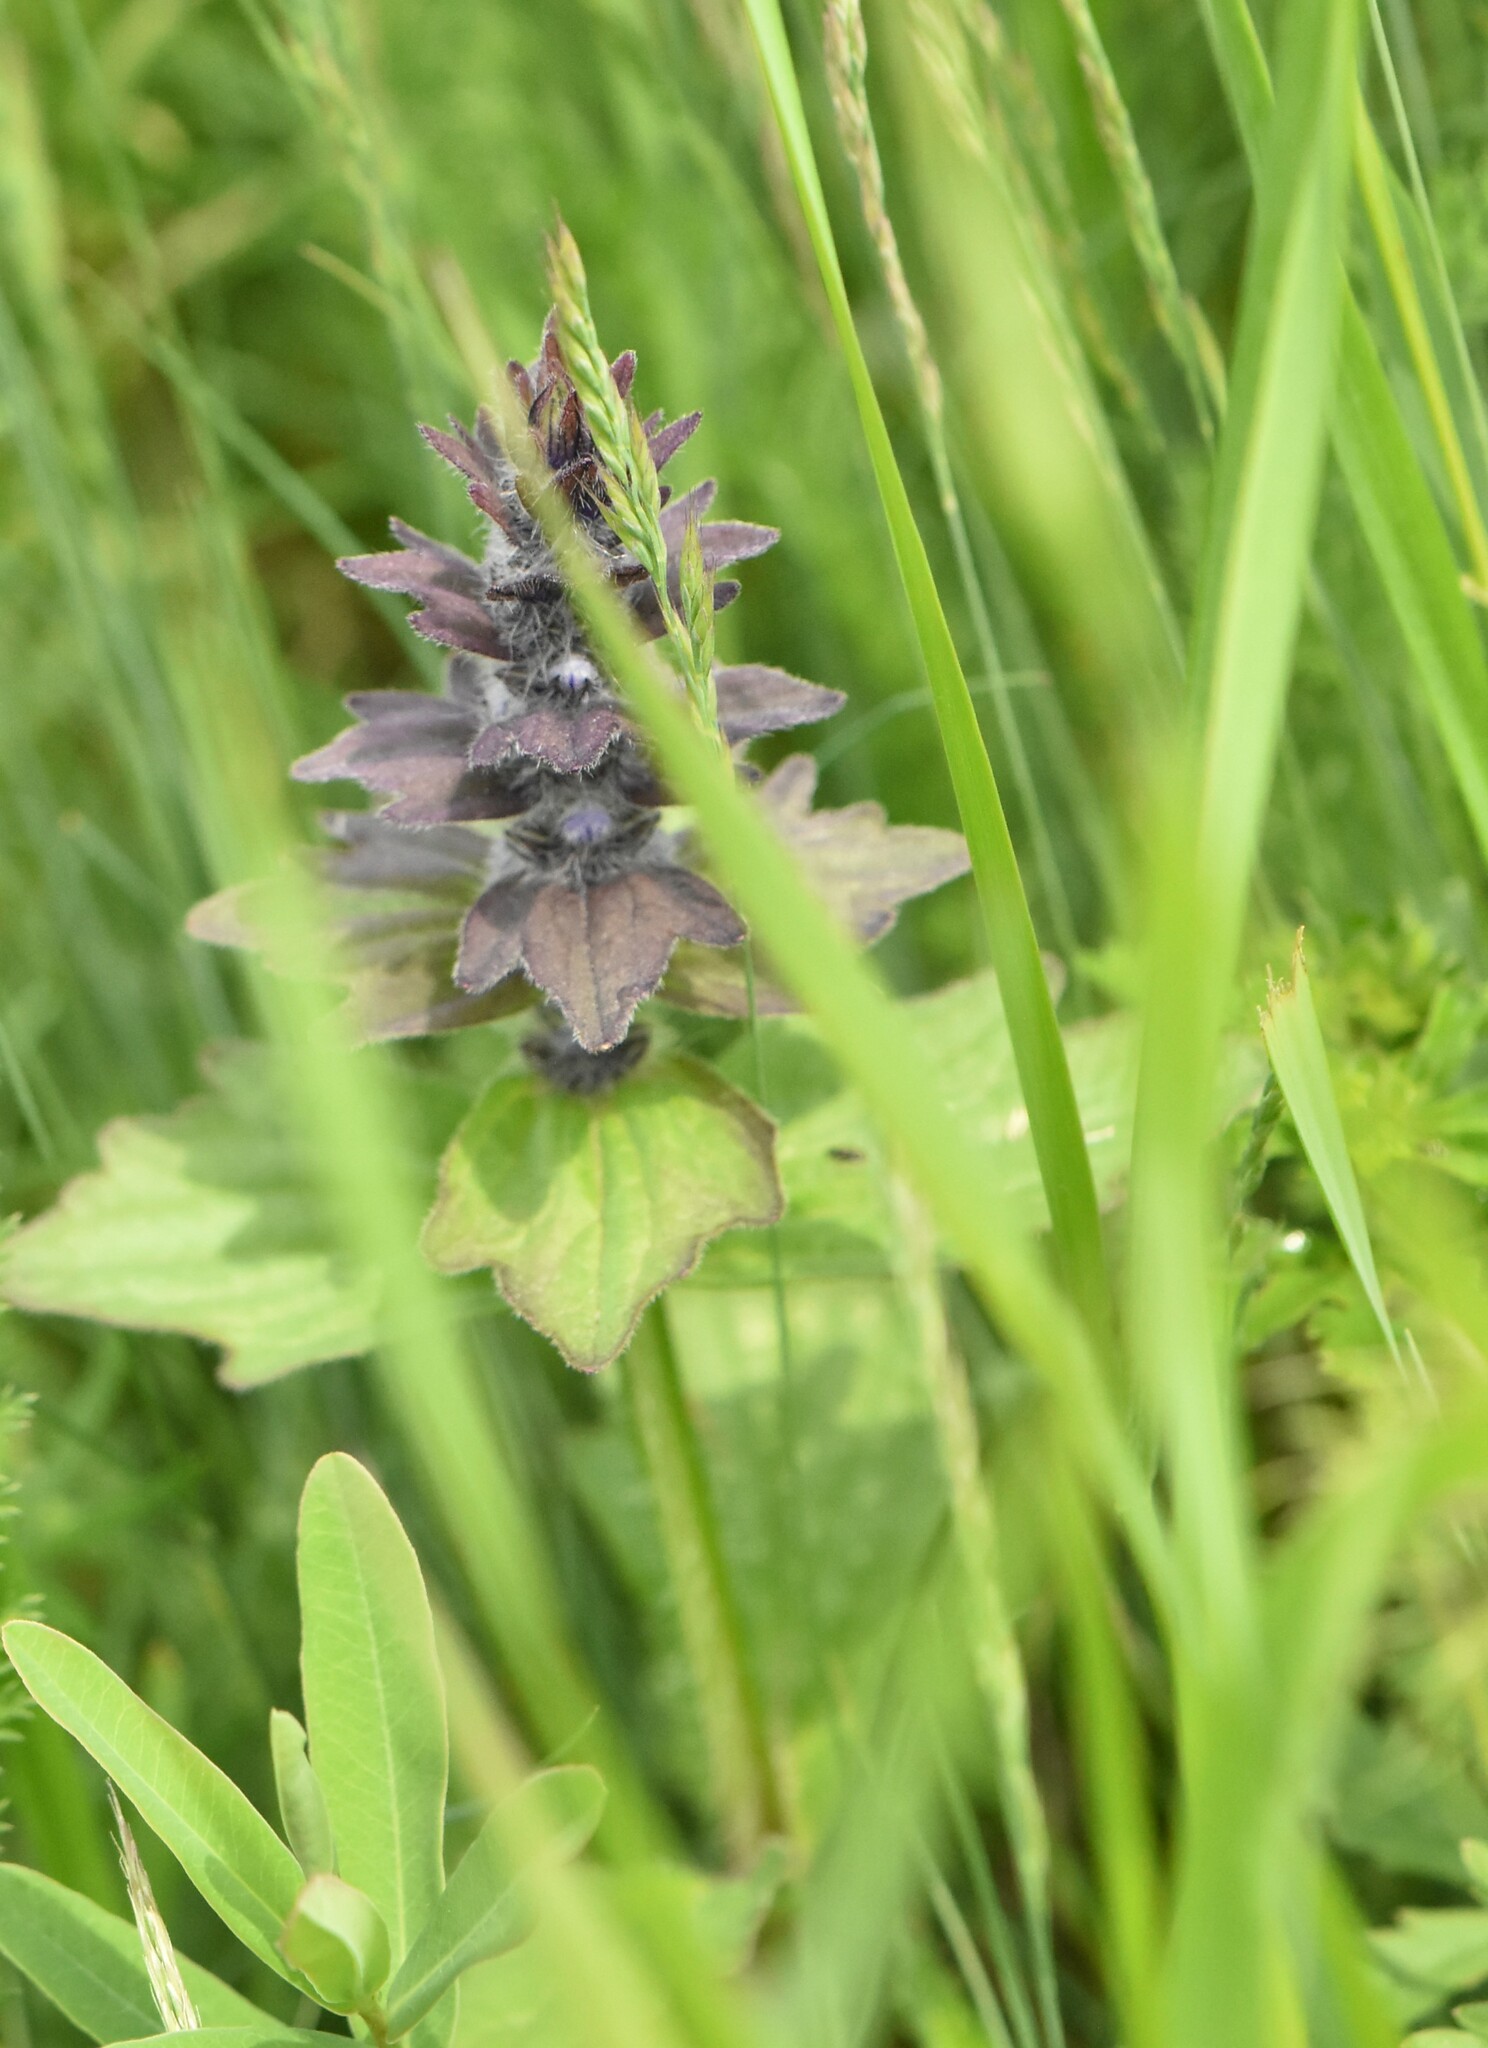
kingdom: Plantae
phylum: Tracheophyta
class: Magnoliopsida
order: Lamiales
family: Lamiaceae
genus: Ajuga
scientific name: Ajuga genevensis
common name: Blue bugle
